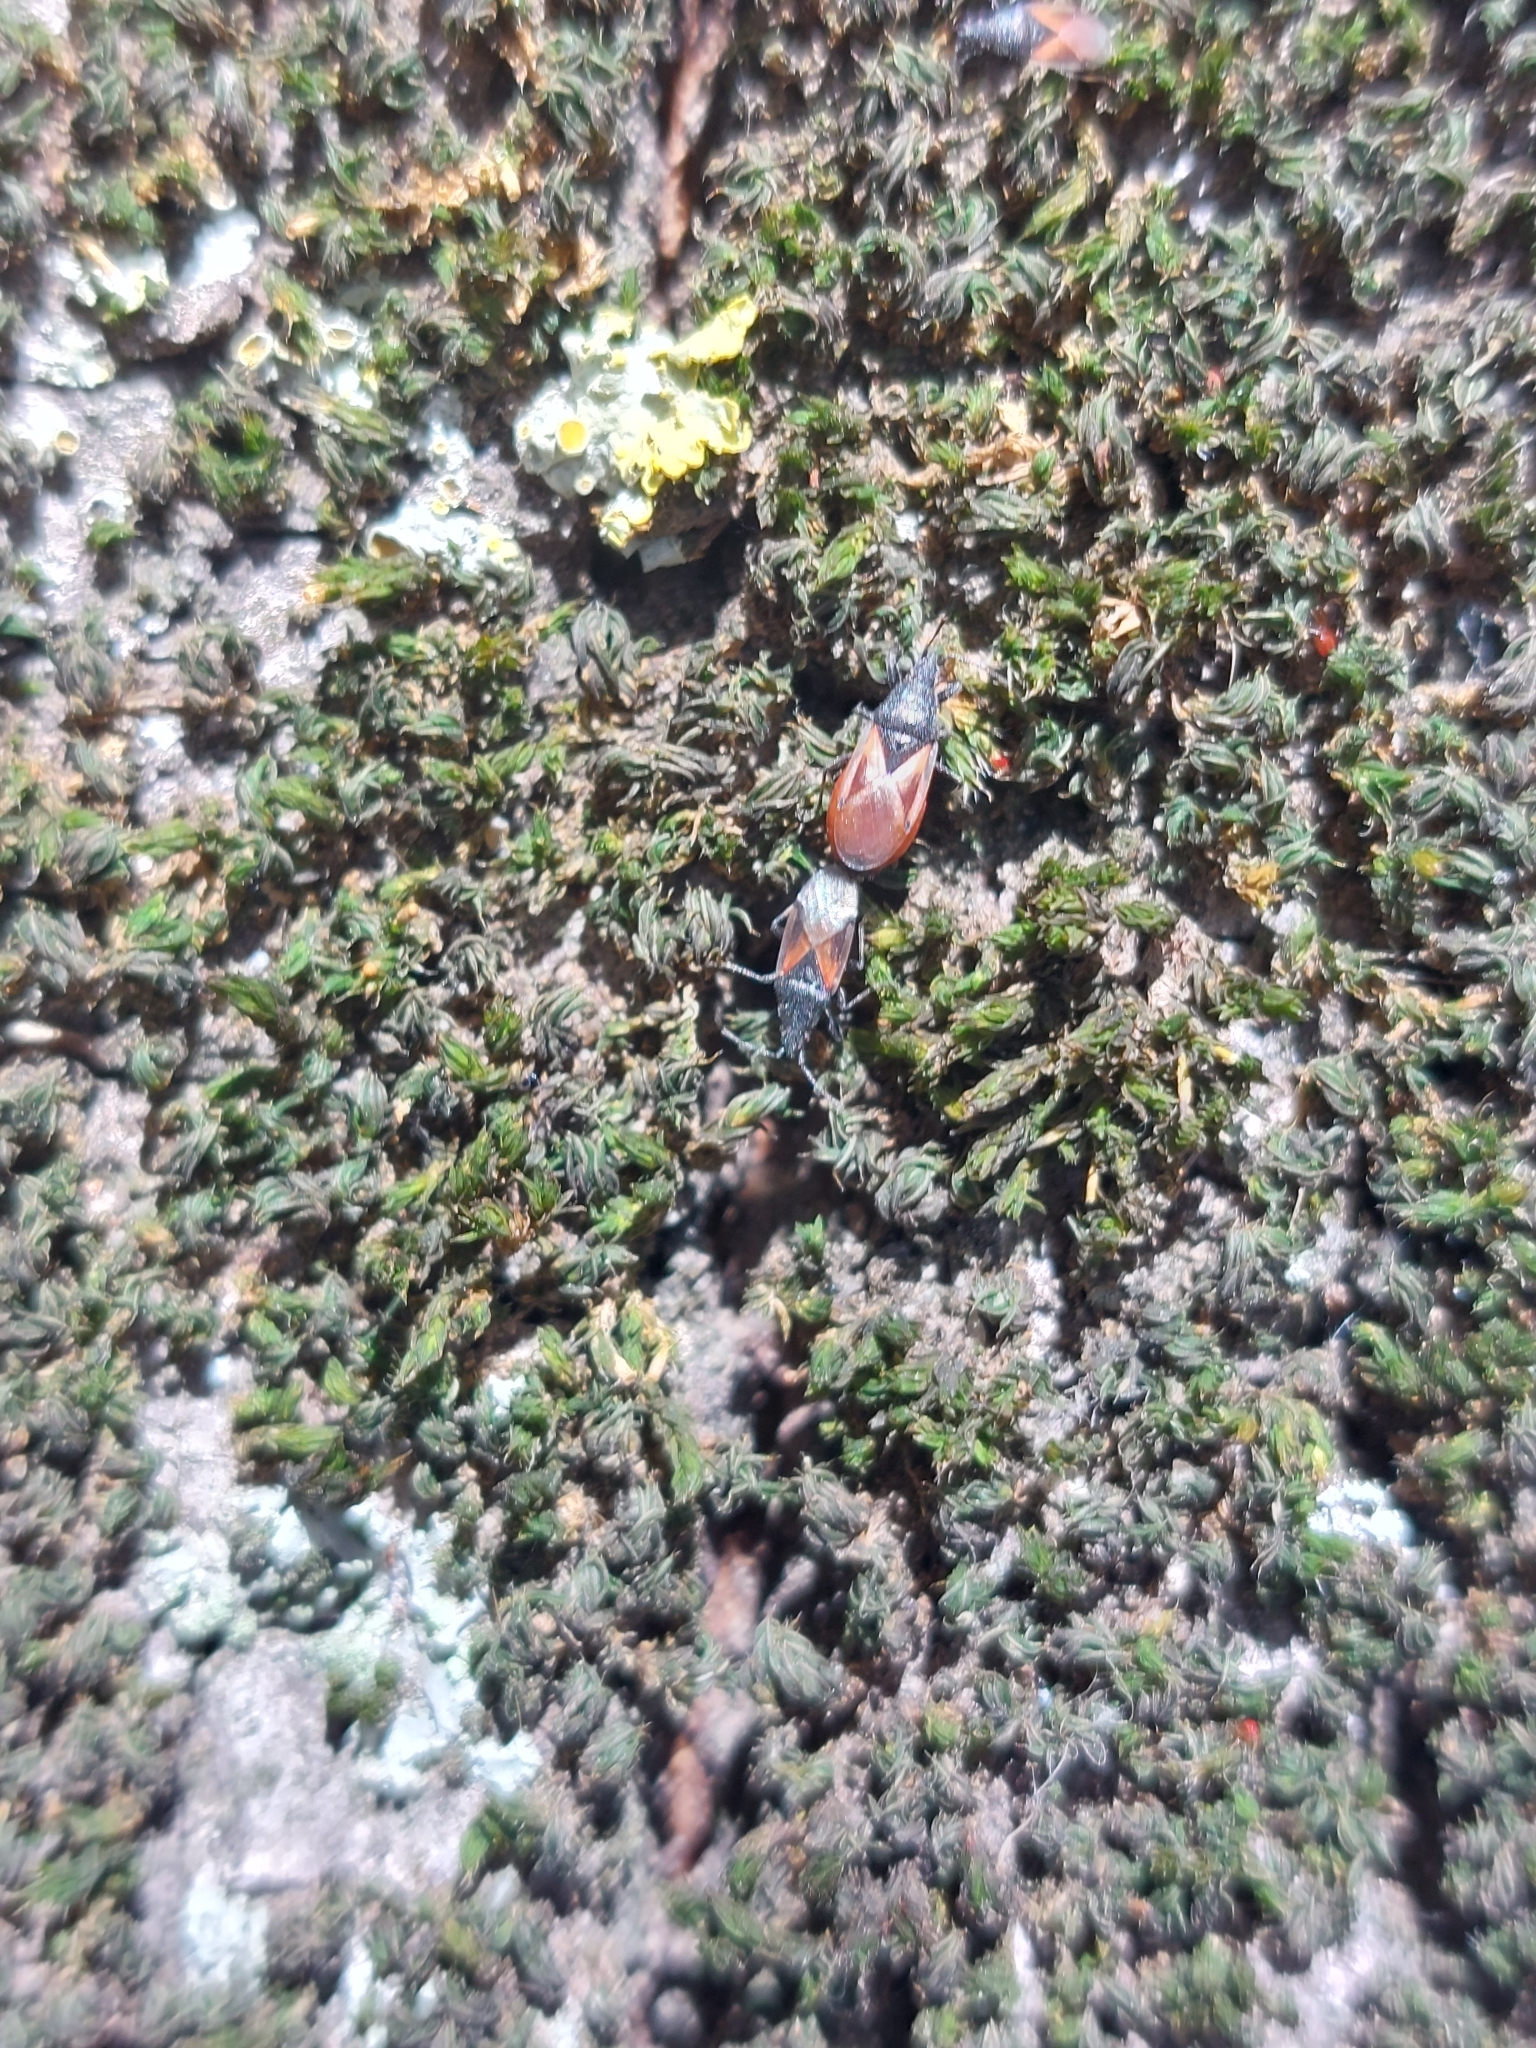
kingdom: Animalia
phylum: Arthropoda
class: Insecta
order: Hemiptera
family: Oxycarenidae
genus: Oxycarenus
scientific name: Oxycarenus lavaterae
